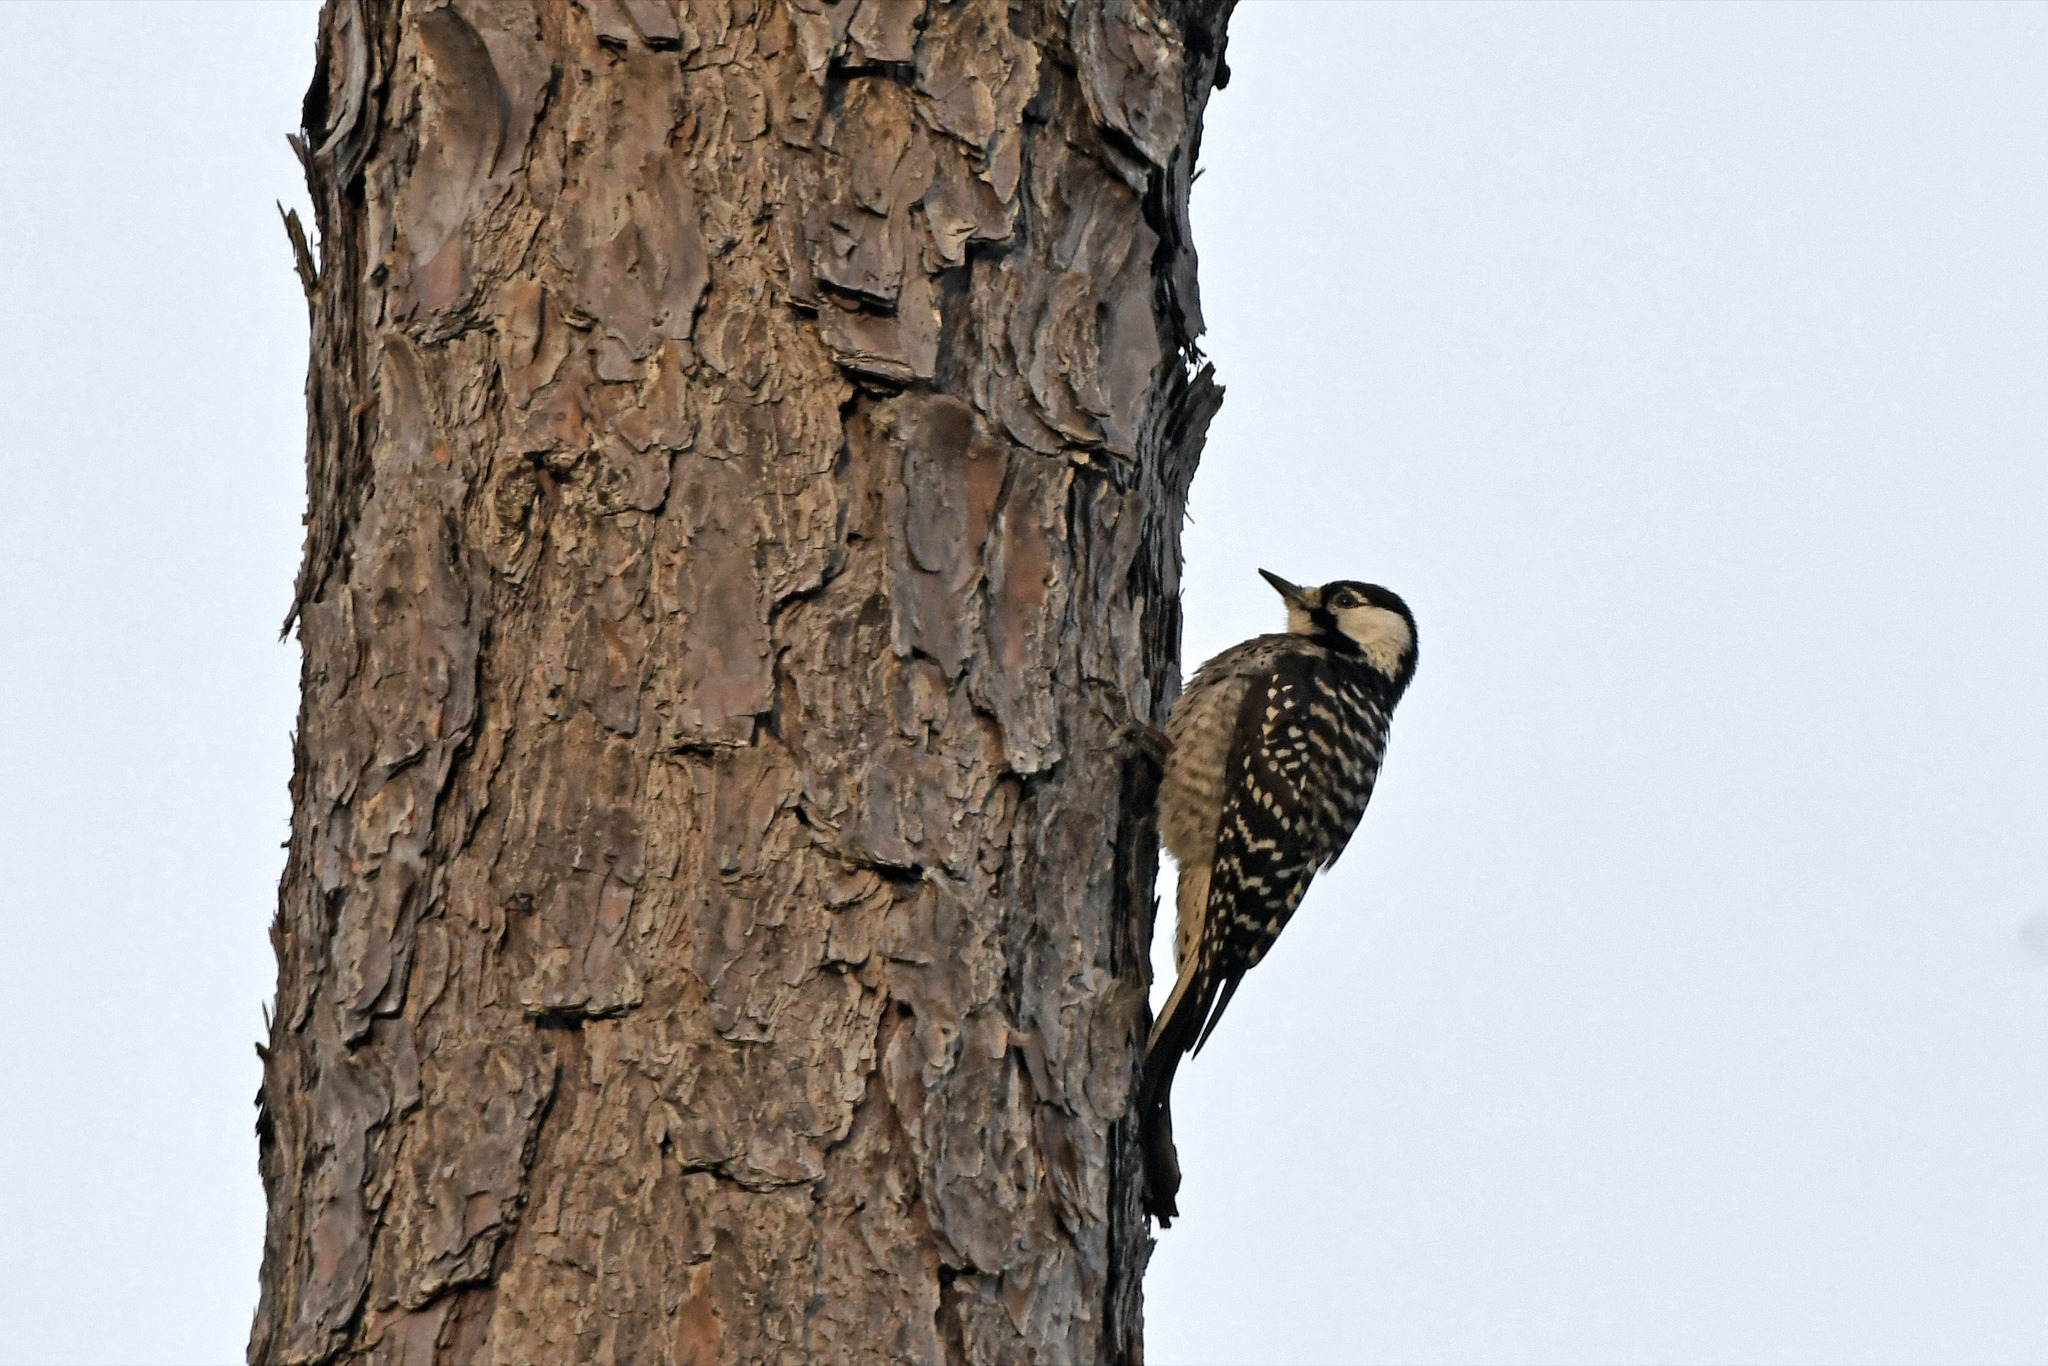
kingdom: Animalia
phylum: Chordata
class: Aves
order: Piciformes
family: Picidae
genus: Leuconotopicus
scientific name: Leuconotopicus borealis
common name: Red-cockaded woodpecker
